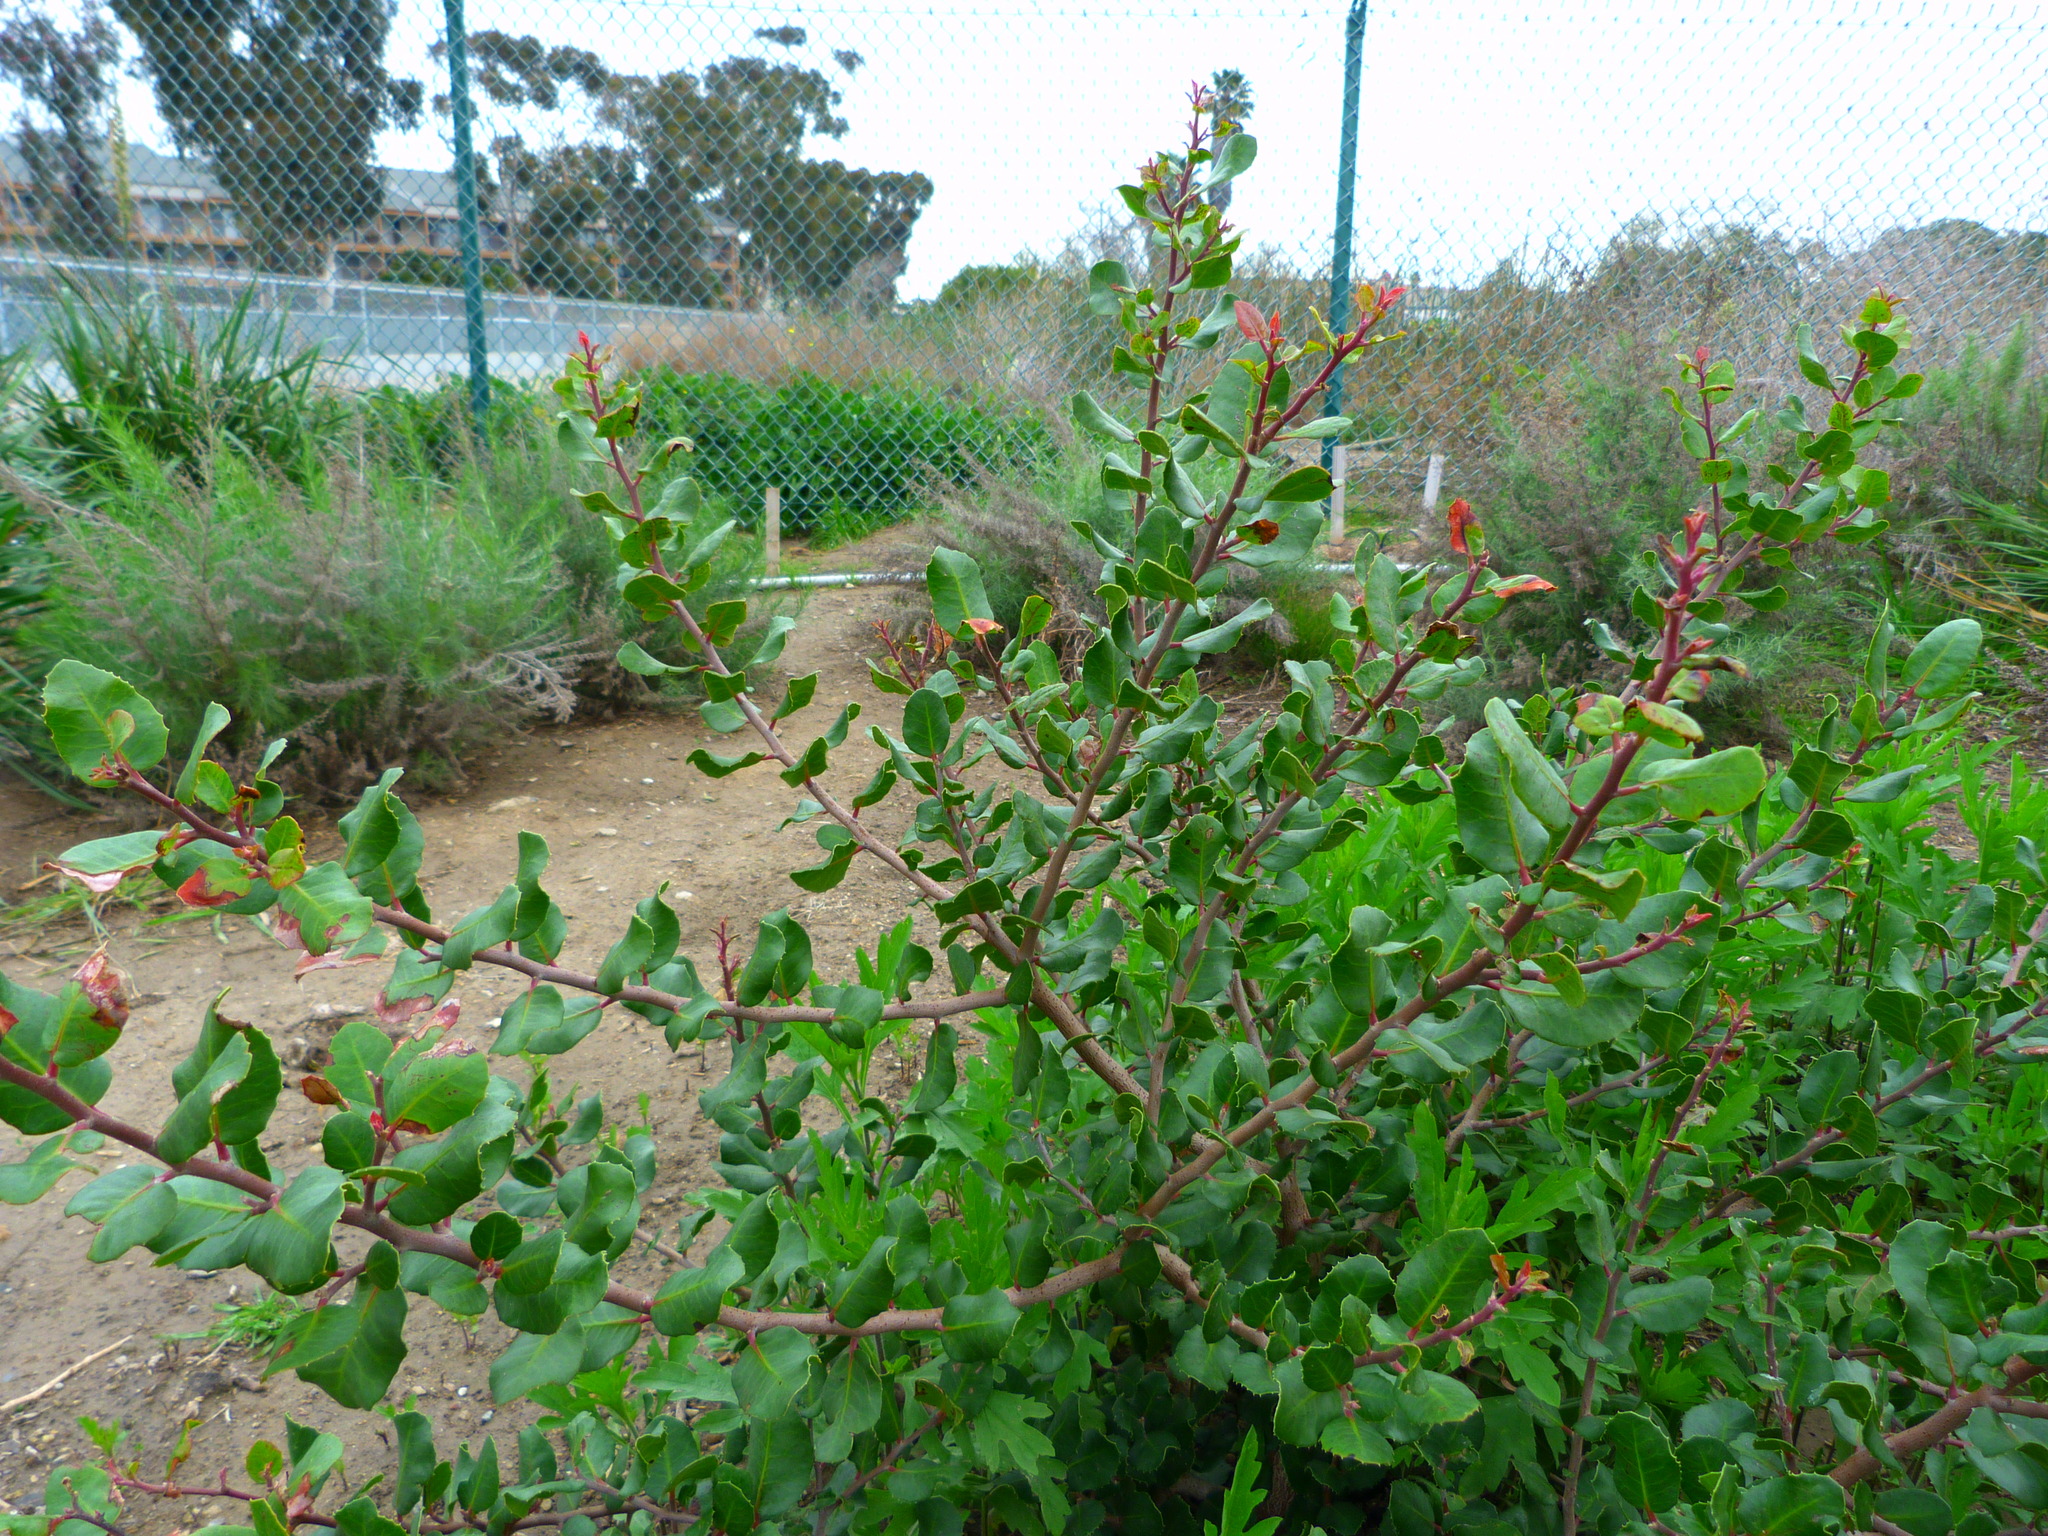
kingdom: Plantae
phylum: Tracheophyta
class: Magnoliopsida
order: Sapindales
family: Anacardiaceae
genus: Rhus
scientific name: Rhus integrifolia
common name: Lemonade sumac
